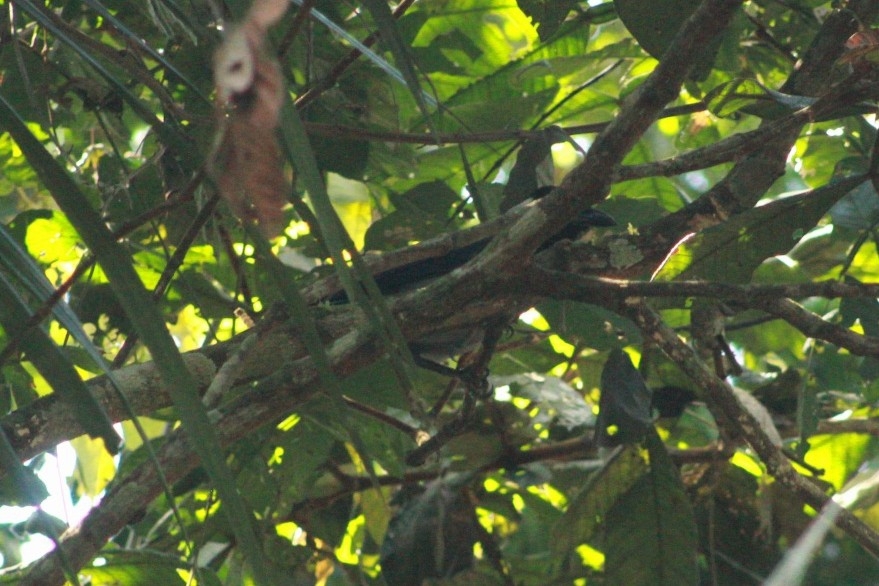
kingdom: Animalia
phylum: Chordata
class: Aves
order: Passeriformes
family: Corvidae
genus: Cyanocorax
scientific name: Cyanocorax violaceus
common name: Violaceous jay
